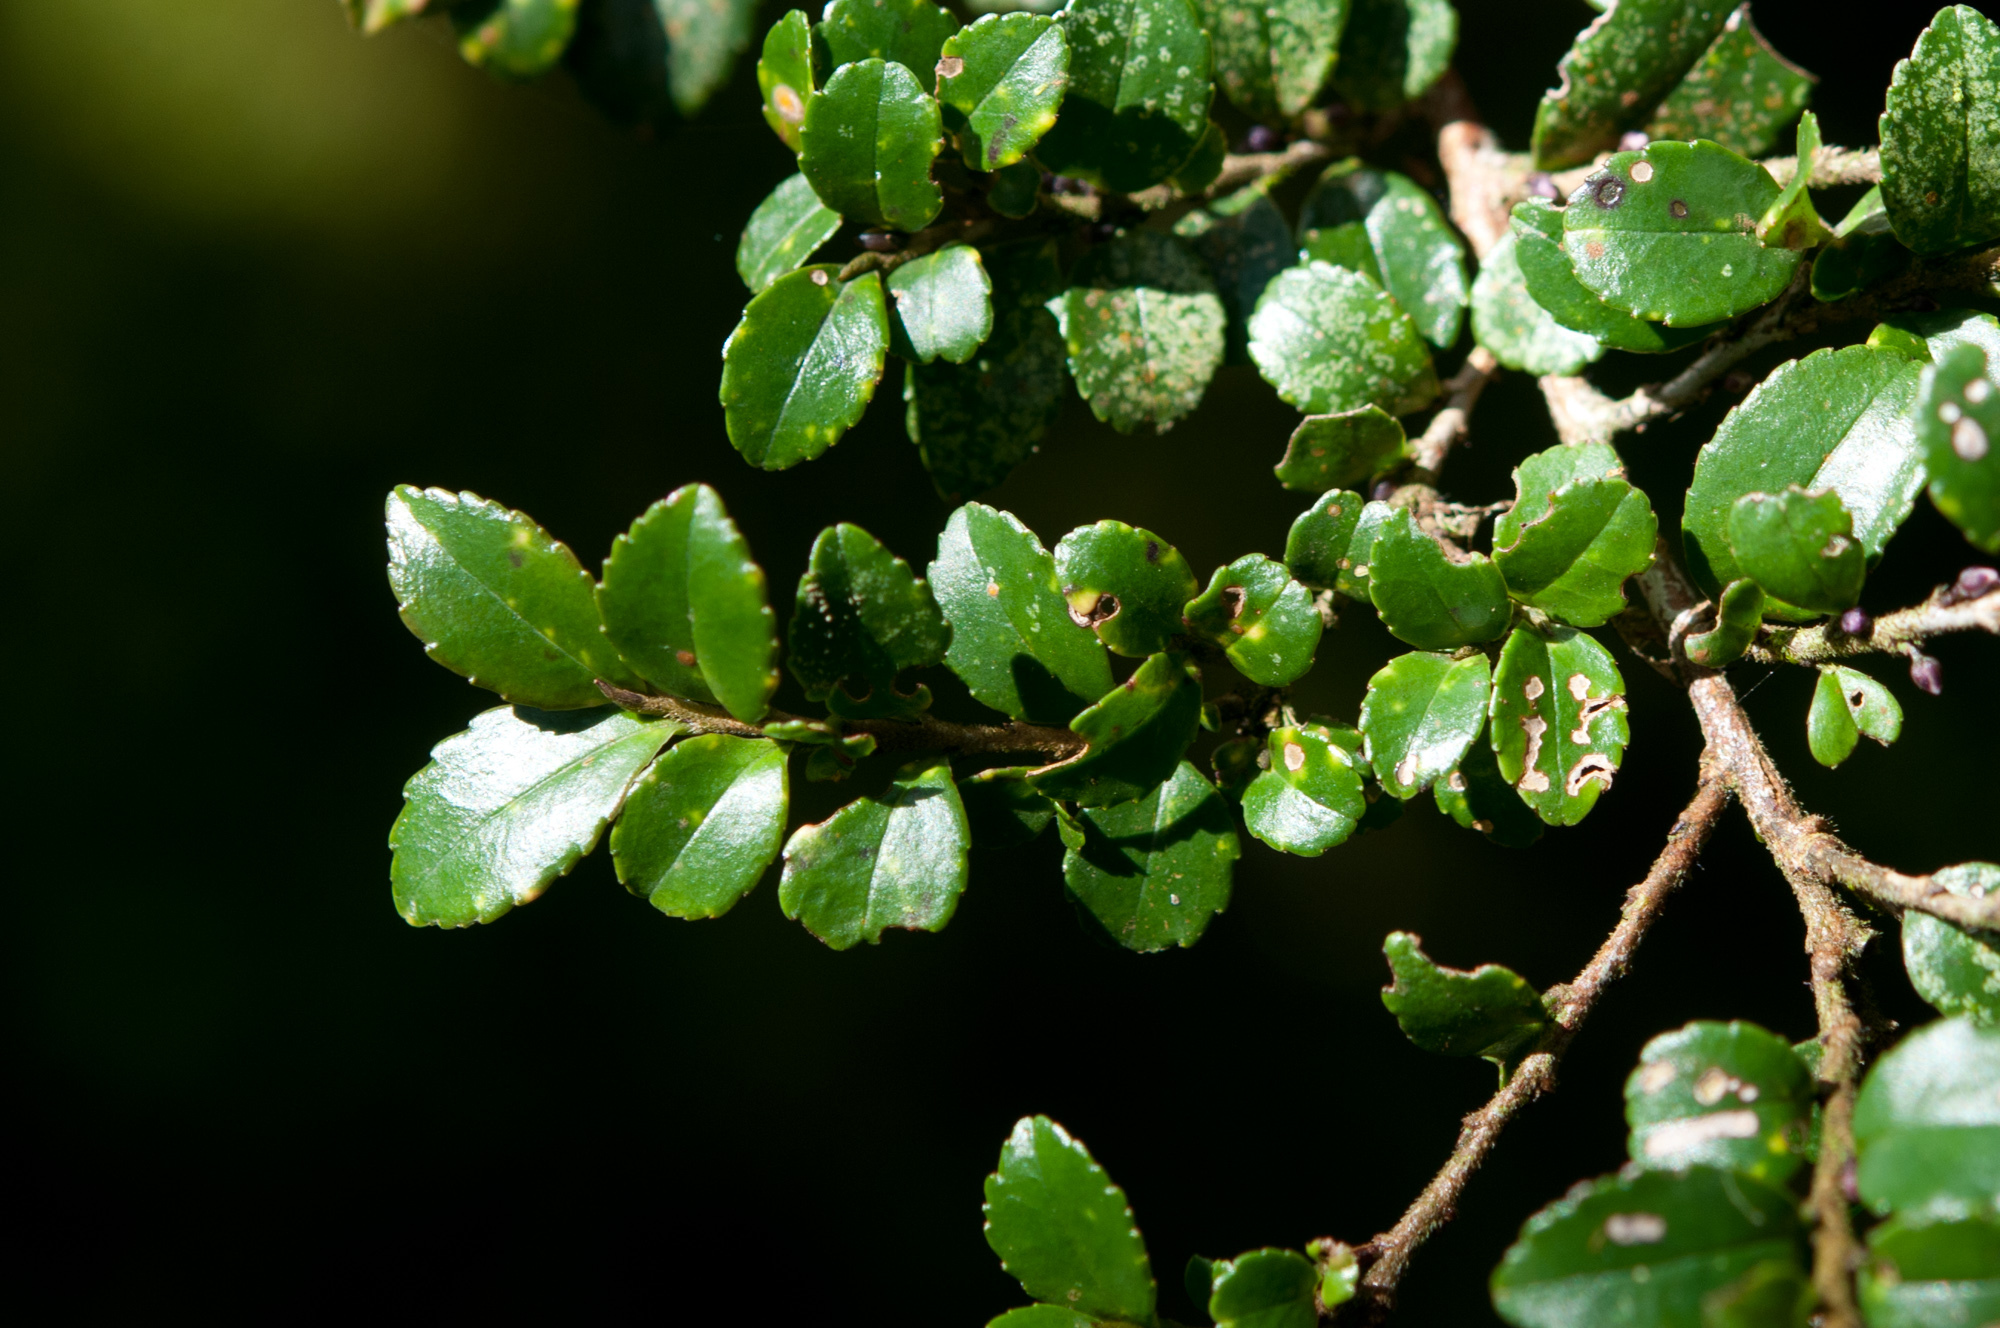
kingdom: Plantae
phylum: Tracheophyta
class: Magnoliopsida
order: Ericales
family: Pentaphylacaceae
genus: Eurya
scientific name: Eurya crenatifolia
